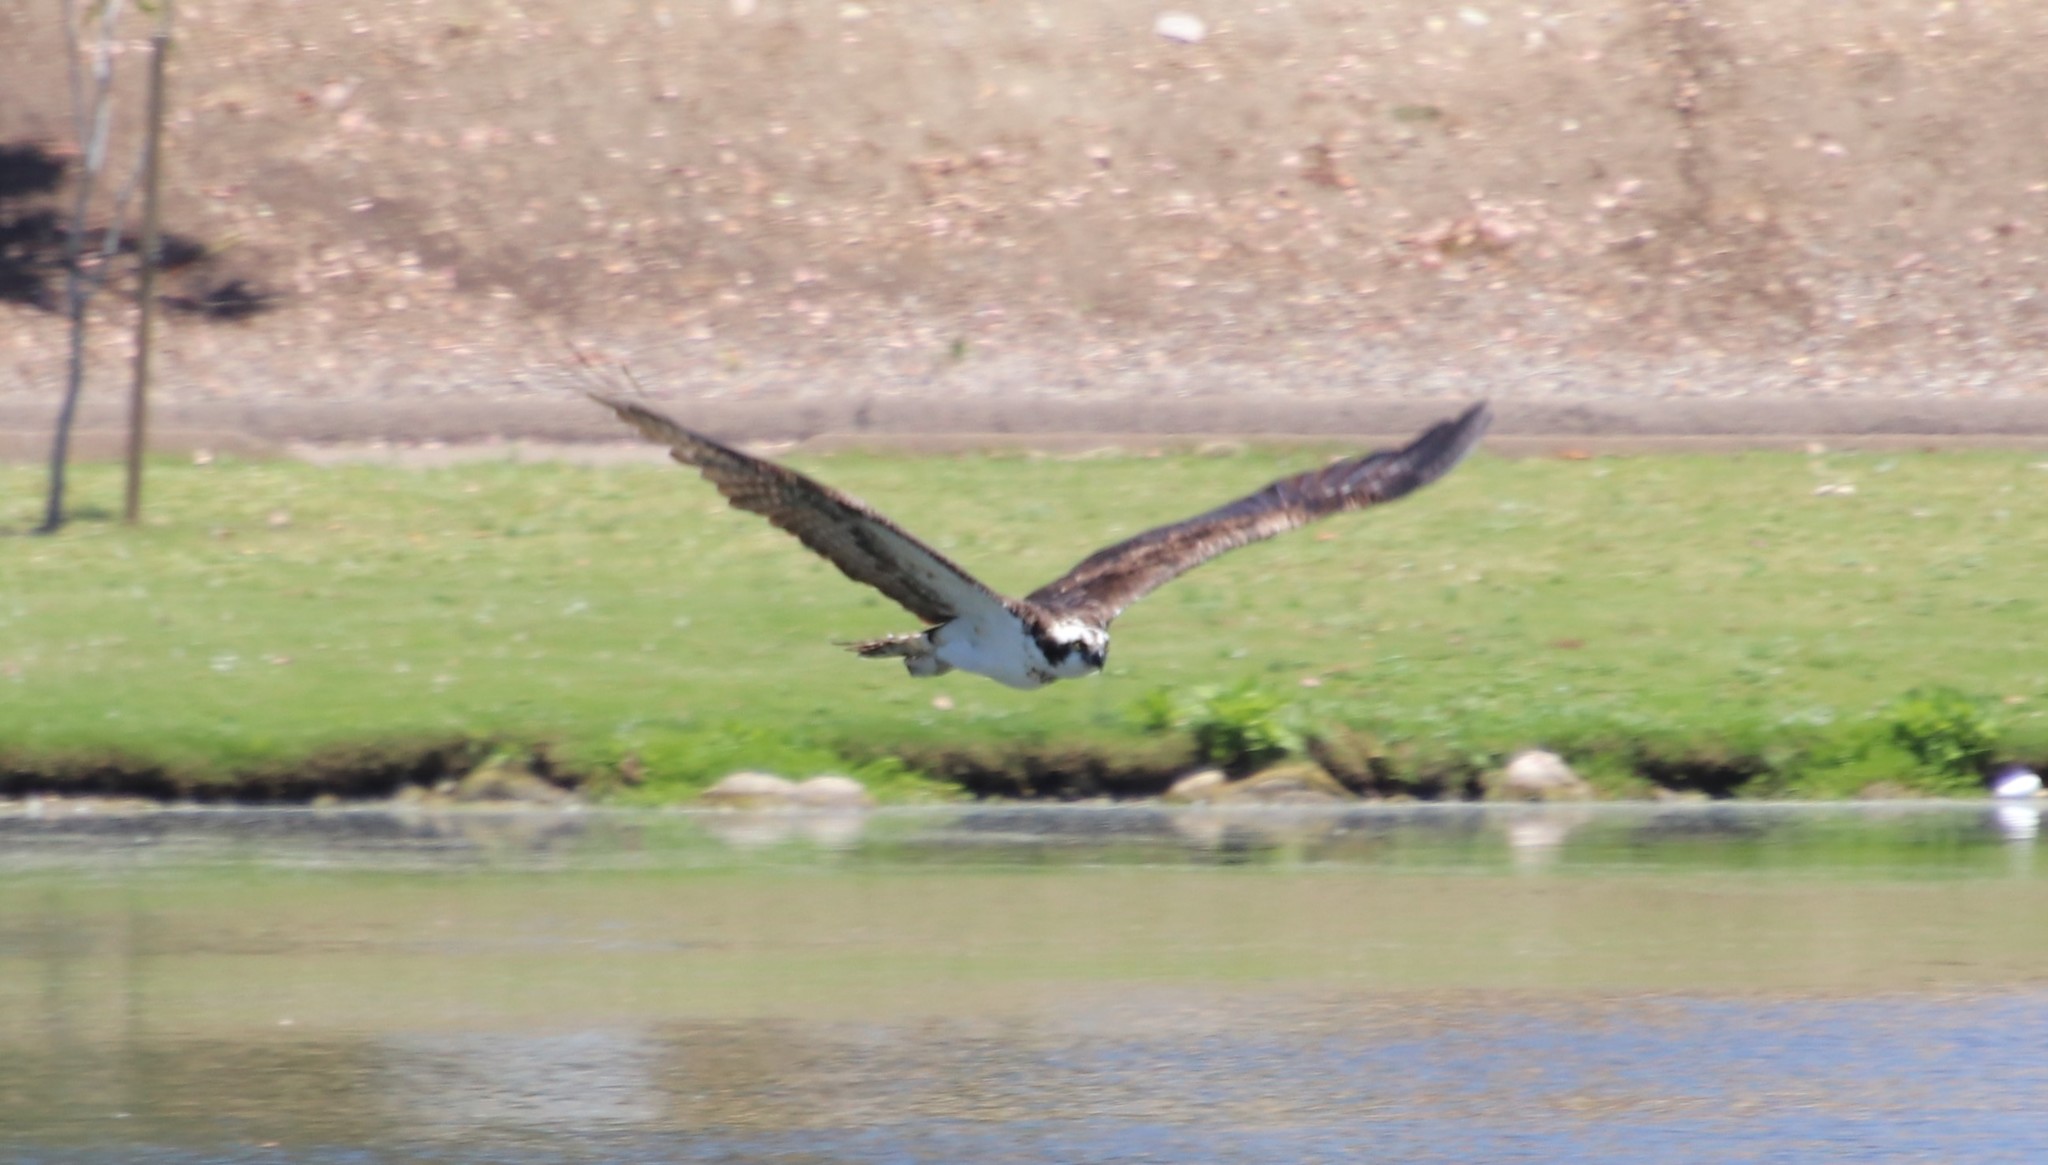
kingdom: Animalia
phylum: Chordata
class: Aves
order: Accipitriformes
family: Pandionidae
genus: Pandion
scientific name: Pandion haliaetus
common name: Osprey
